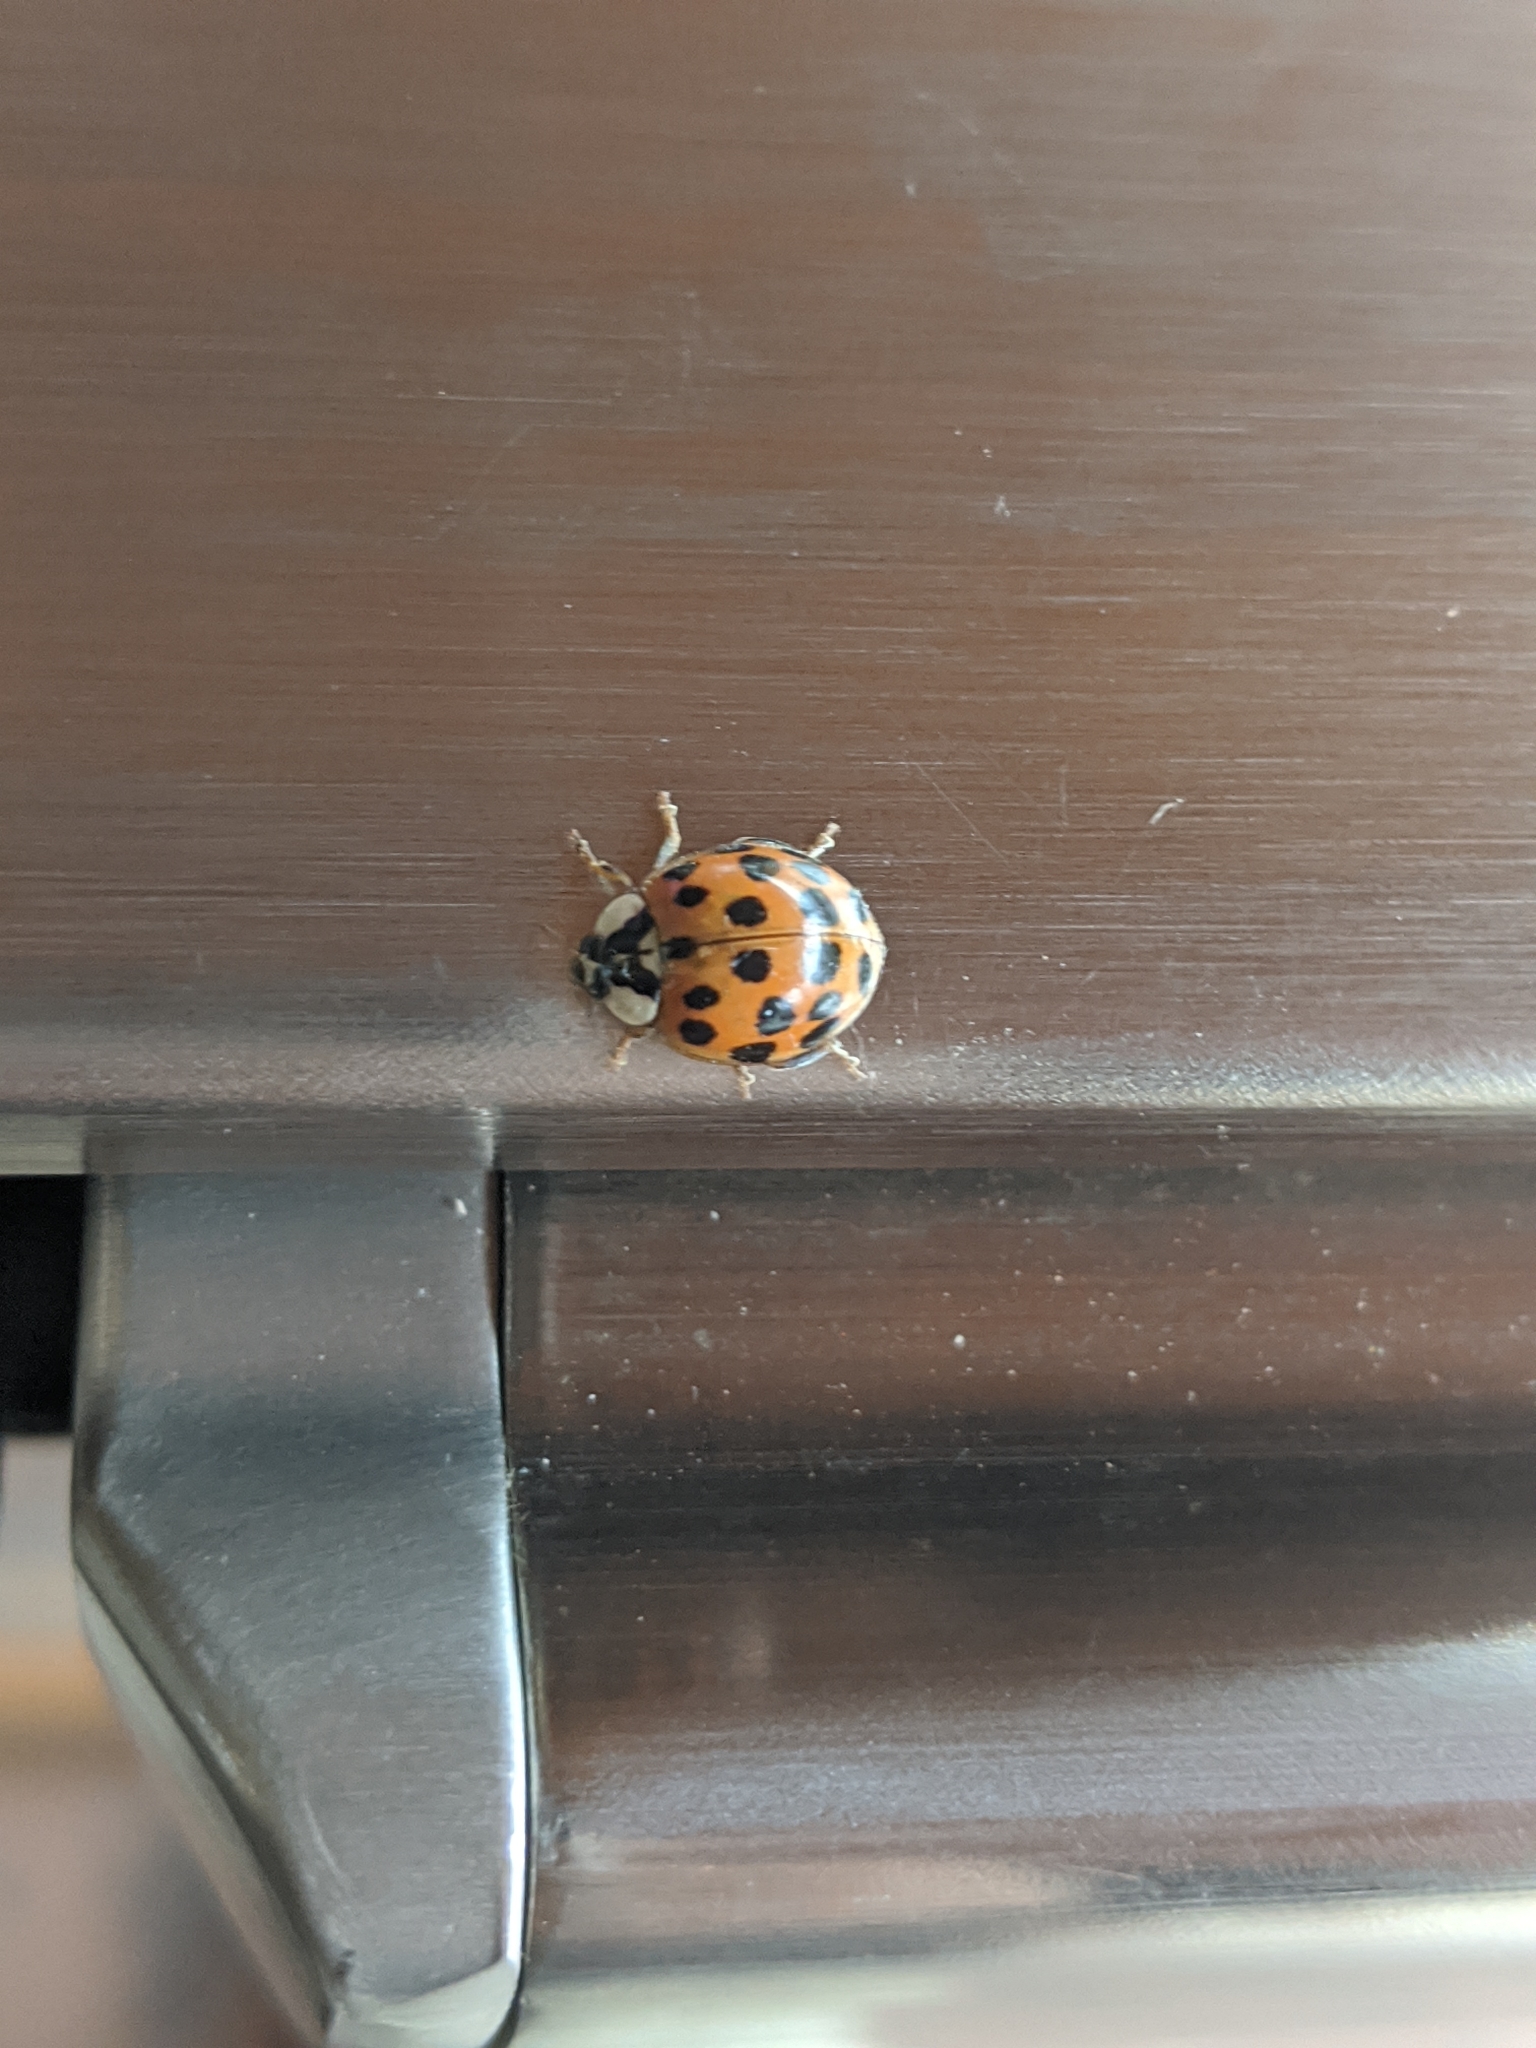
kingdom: Animalia
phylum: Arthropoda
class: Insecta
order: Coleoptera
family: Coccinellidae
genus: Harmonia
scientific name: Harmonia axyridis
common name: Harlequin ladybird
